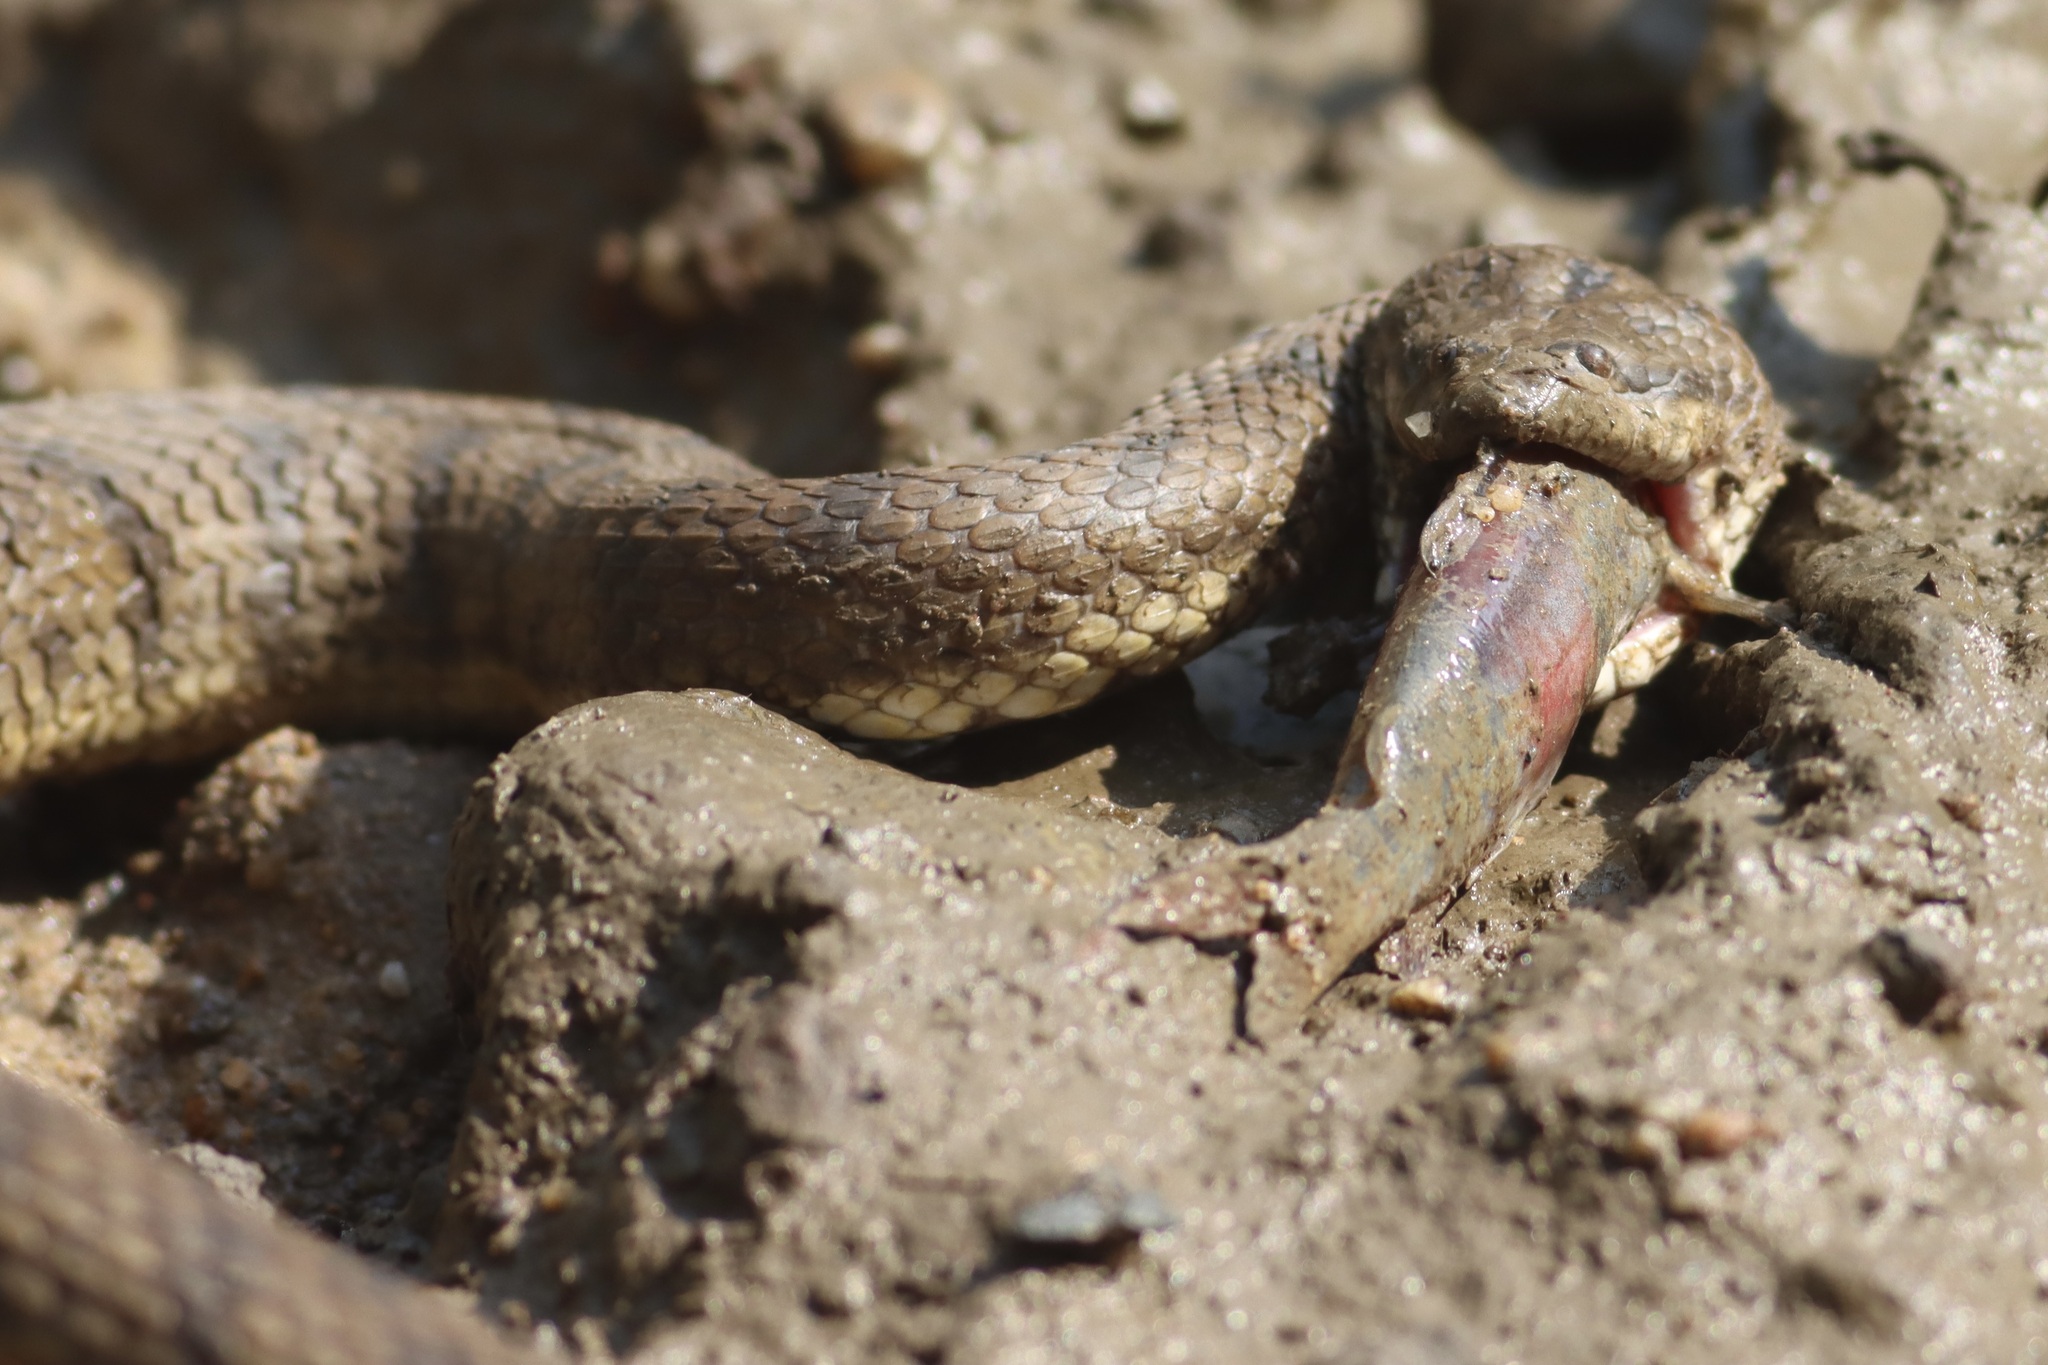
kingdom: Animalia
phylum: Chordata
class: Squamata
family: Homalopsidae
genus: Cerberus
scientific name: Cerberus schneiderii
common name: Southeast asian bockadam
